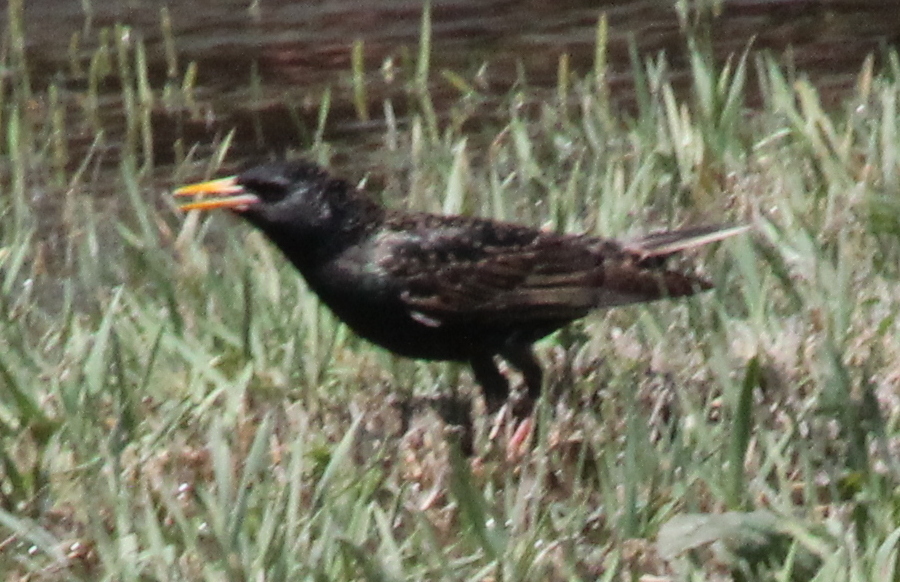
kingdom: Animalia
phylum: Chordata
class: Aves
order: Passeriformes
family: Sturnidae
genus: Sturnus
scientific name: Sturnus vulgaris
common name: Common starling
